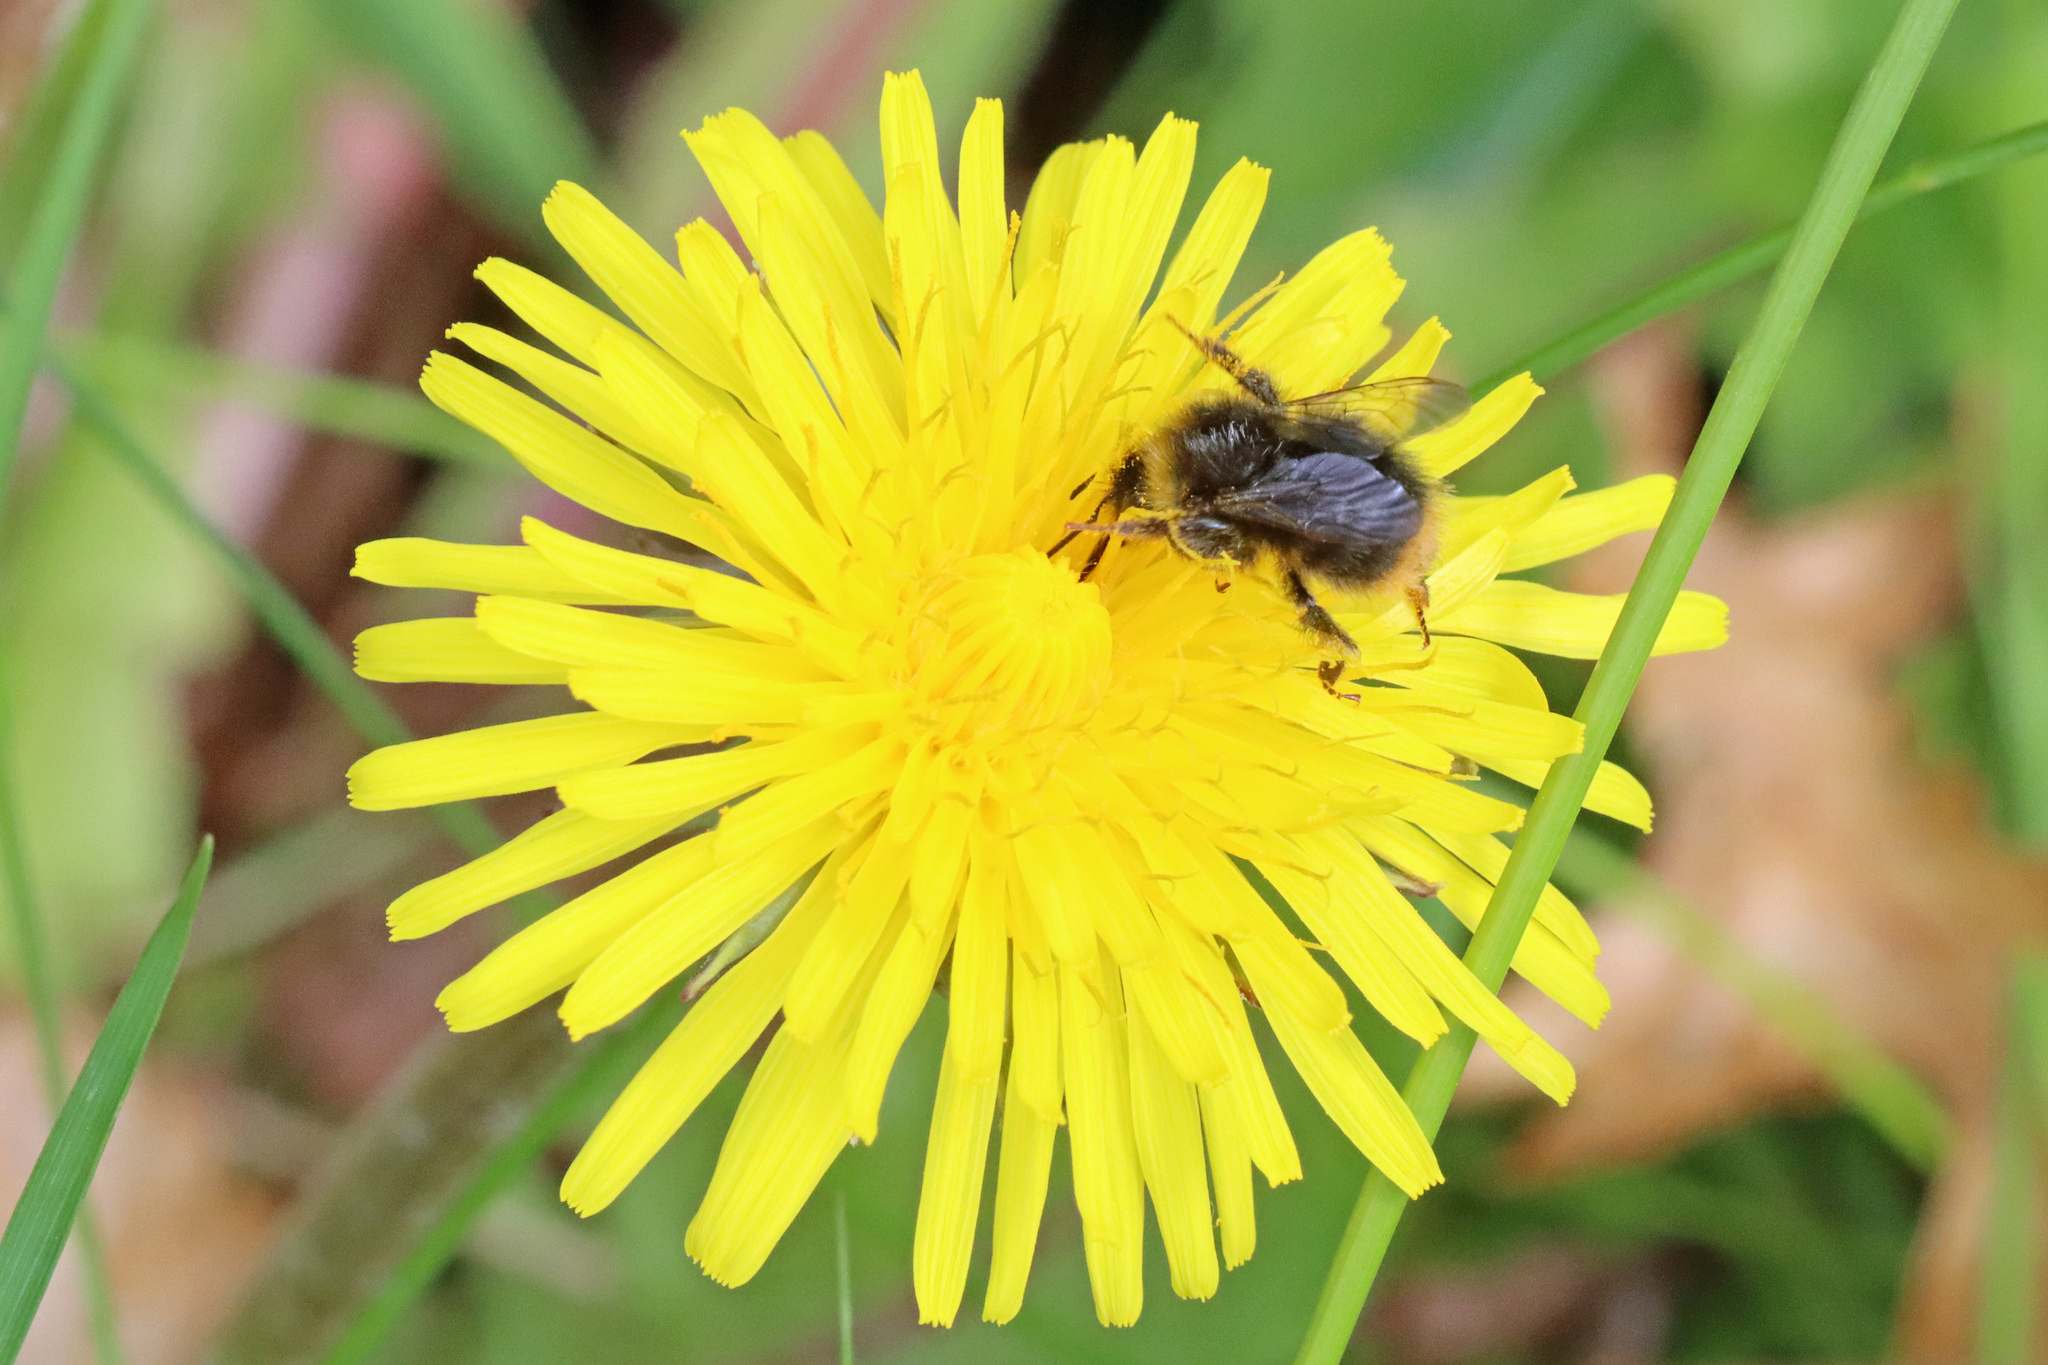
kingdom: Animalia
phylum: Arthropoda
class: Insecta
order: Hymenoptera
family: Apidae
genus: Bombus
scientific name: Bombus pratorum
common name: Early humble-bee
